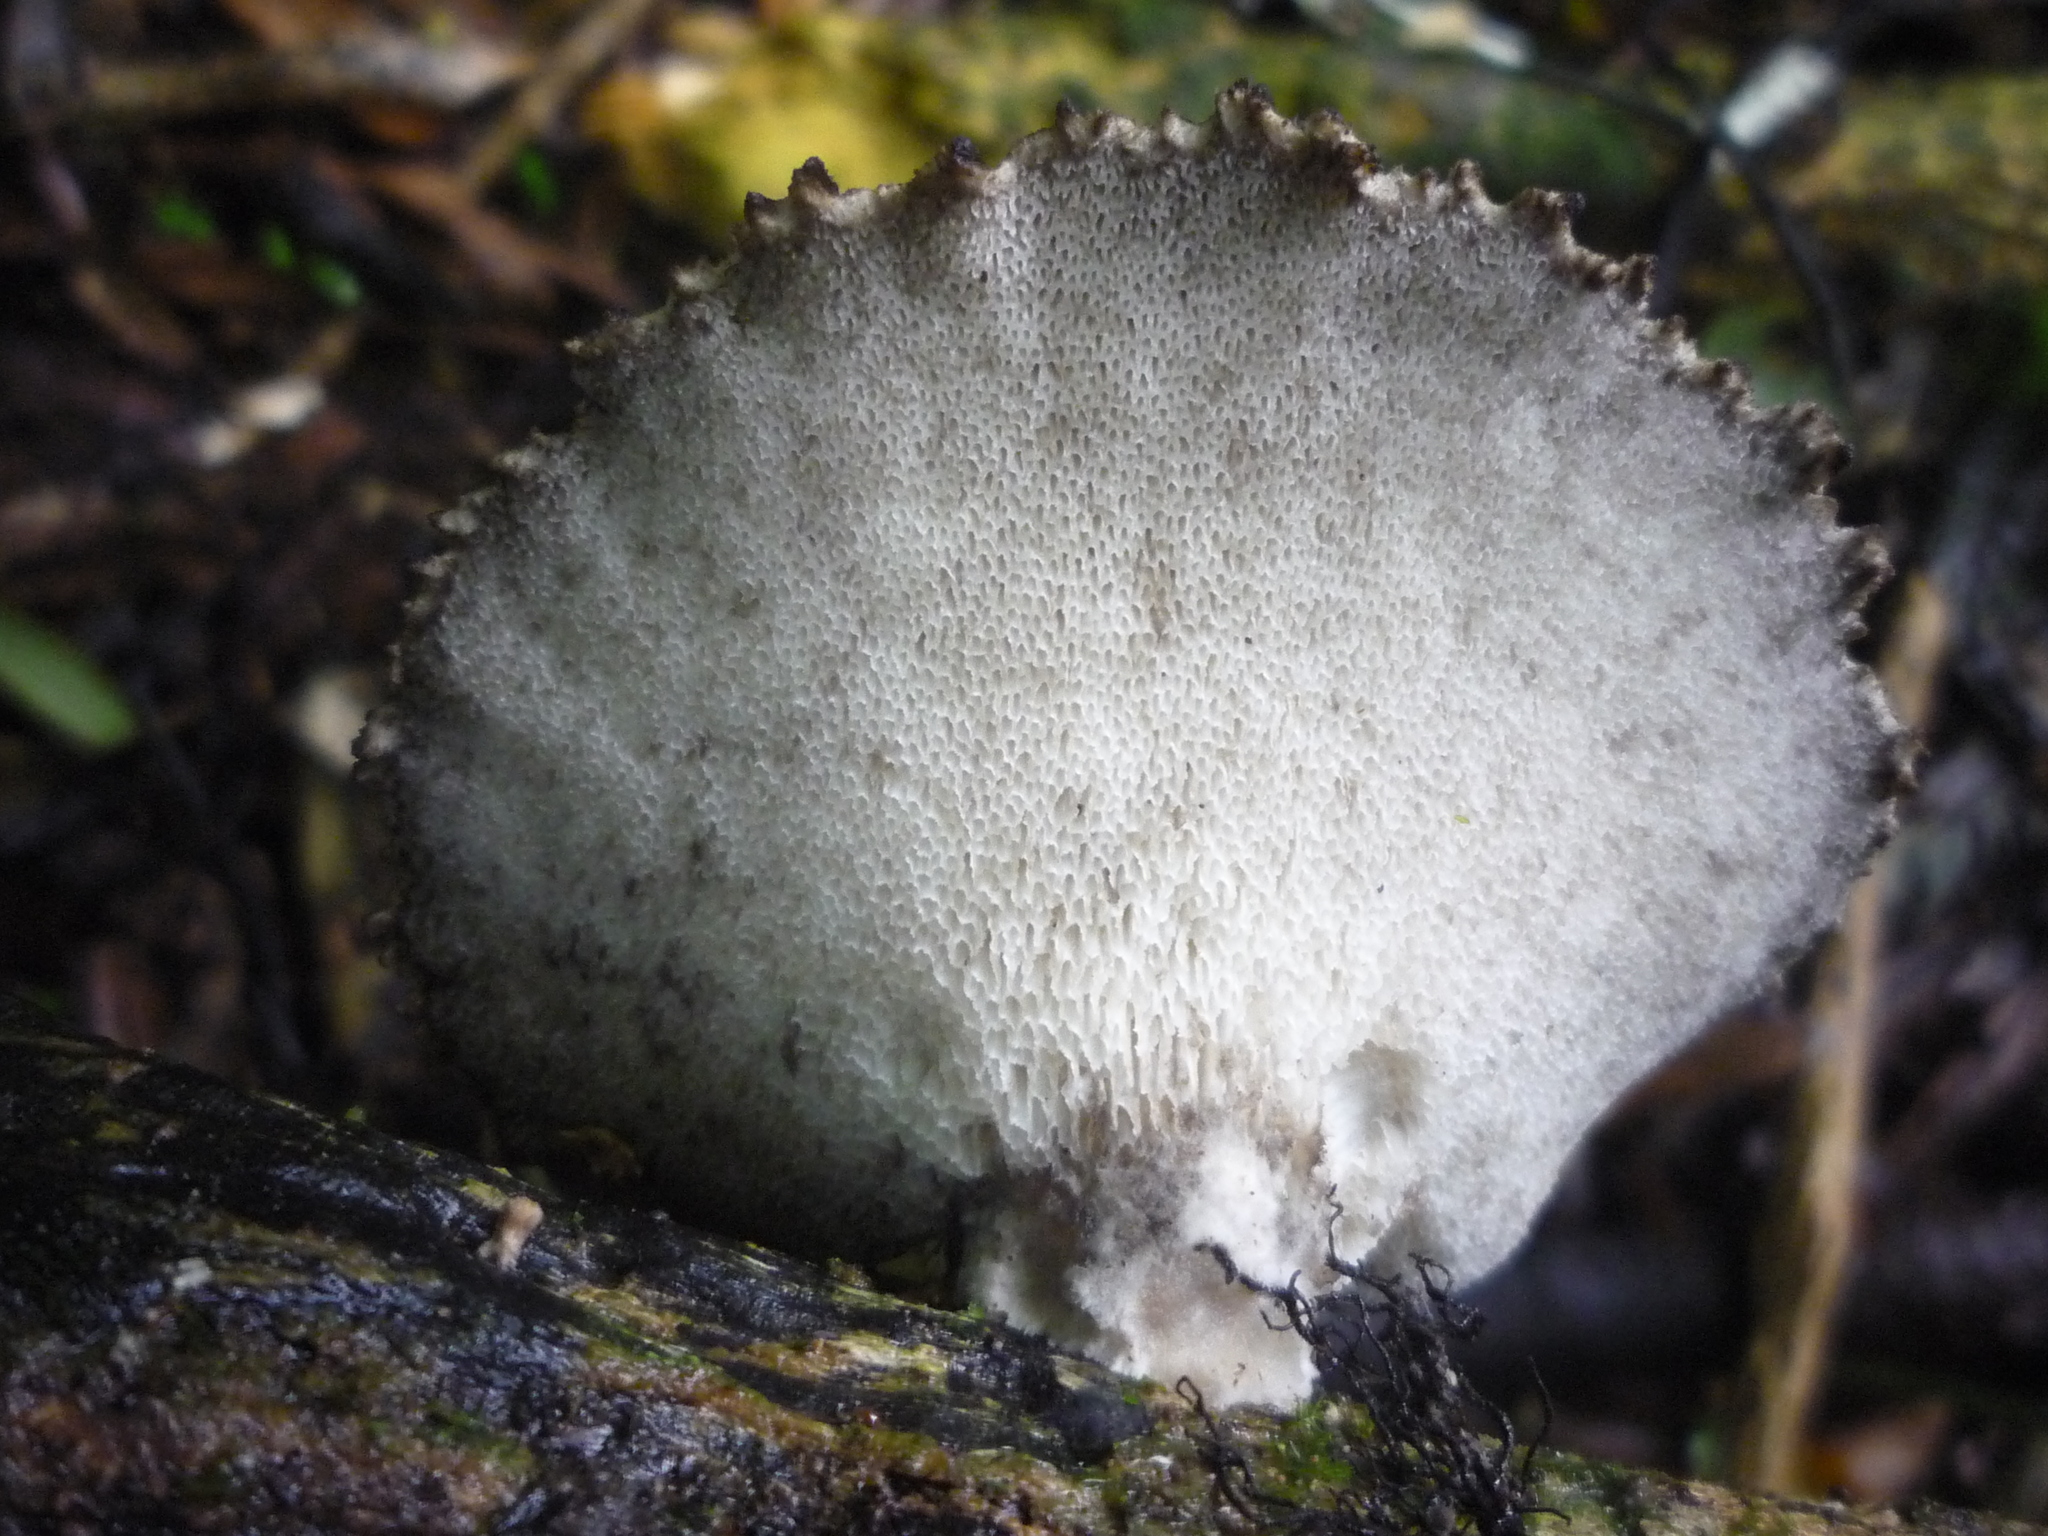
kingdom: Fungi
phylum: Basidiomycota
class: Agaricomycetes
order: Polyporales
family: Polyporaceae
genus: Bresadolia
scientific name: Bresadolia
